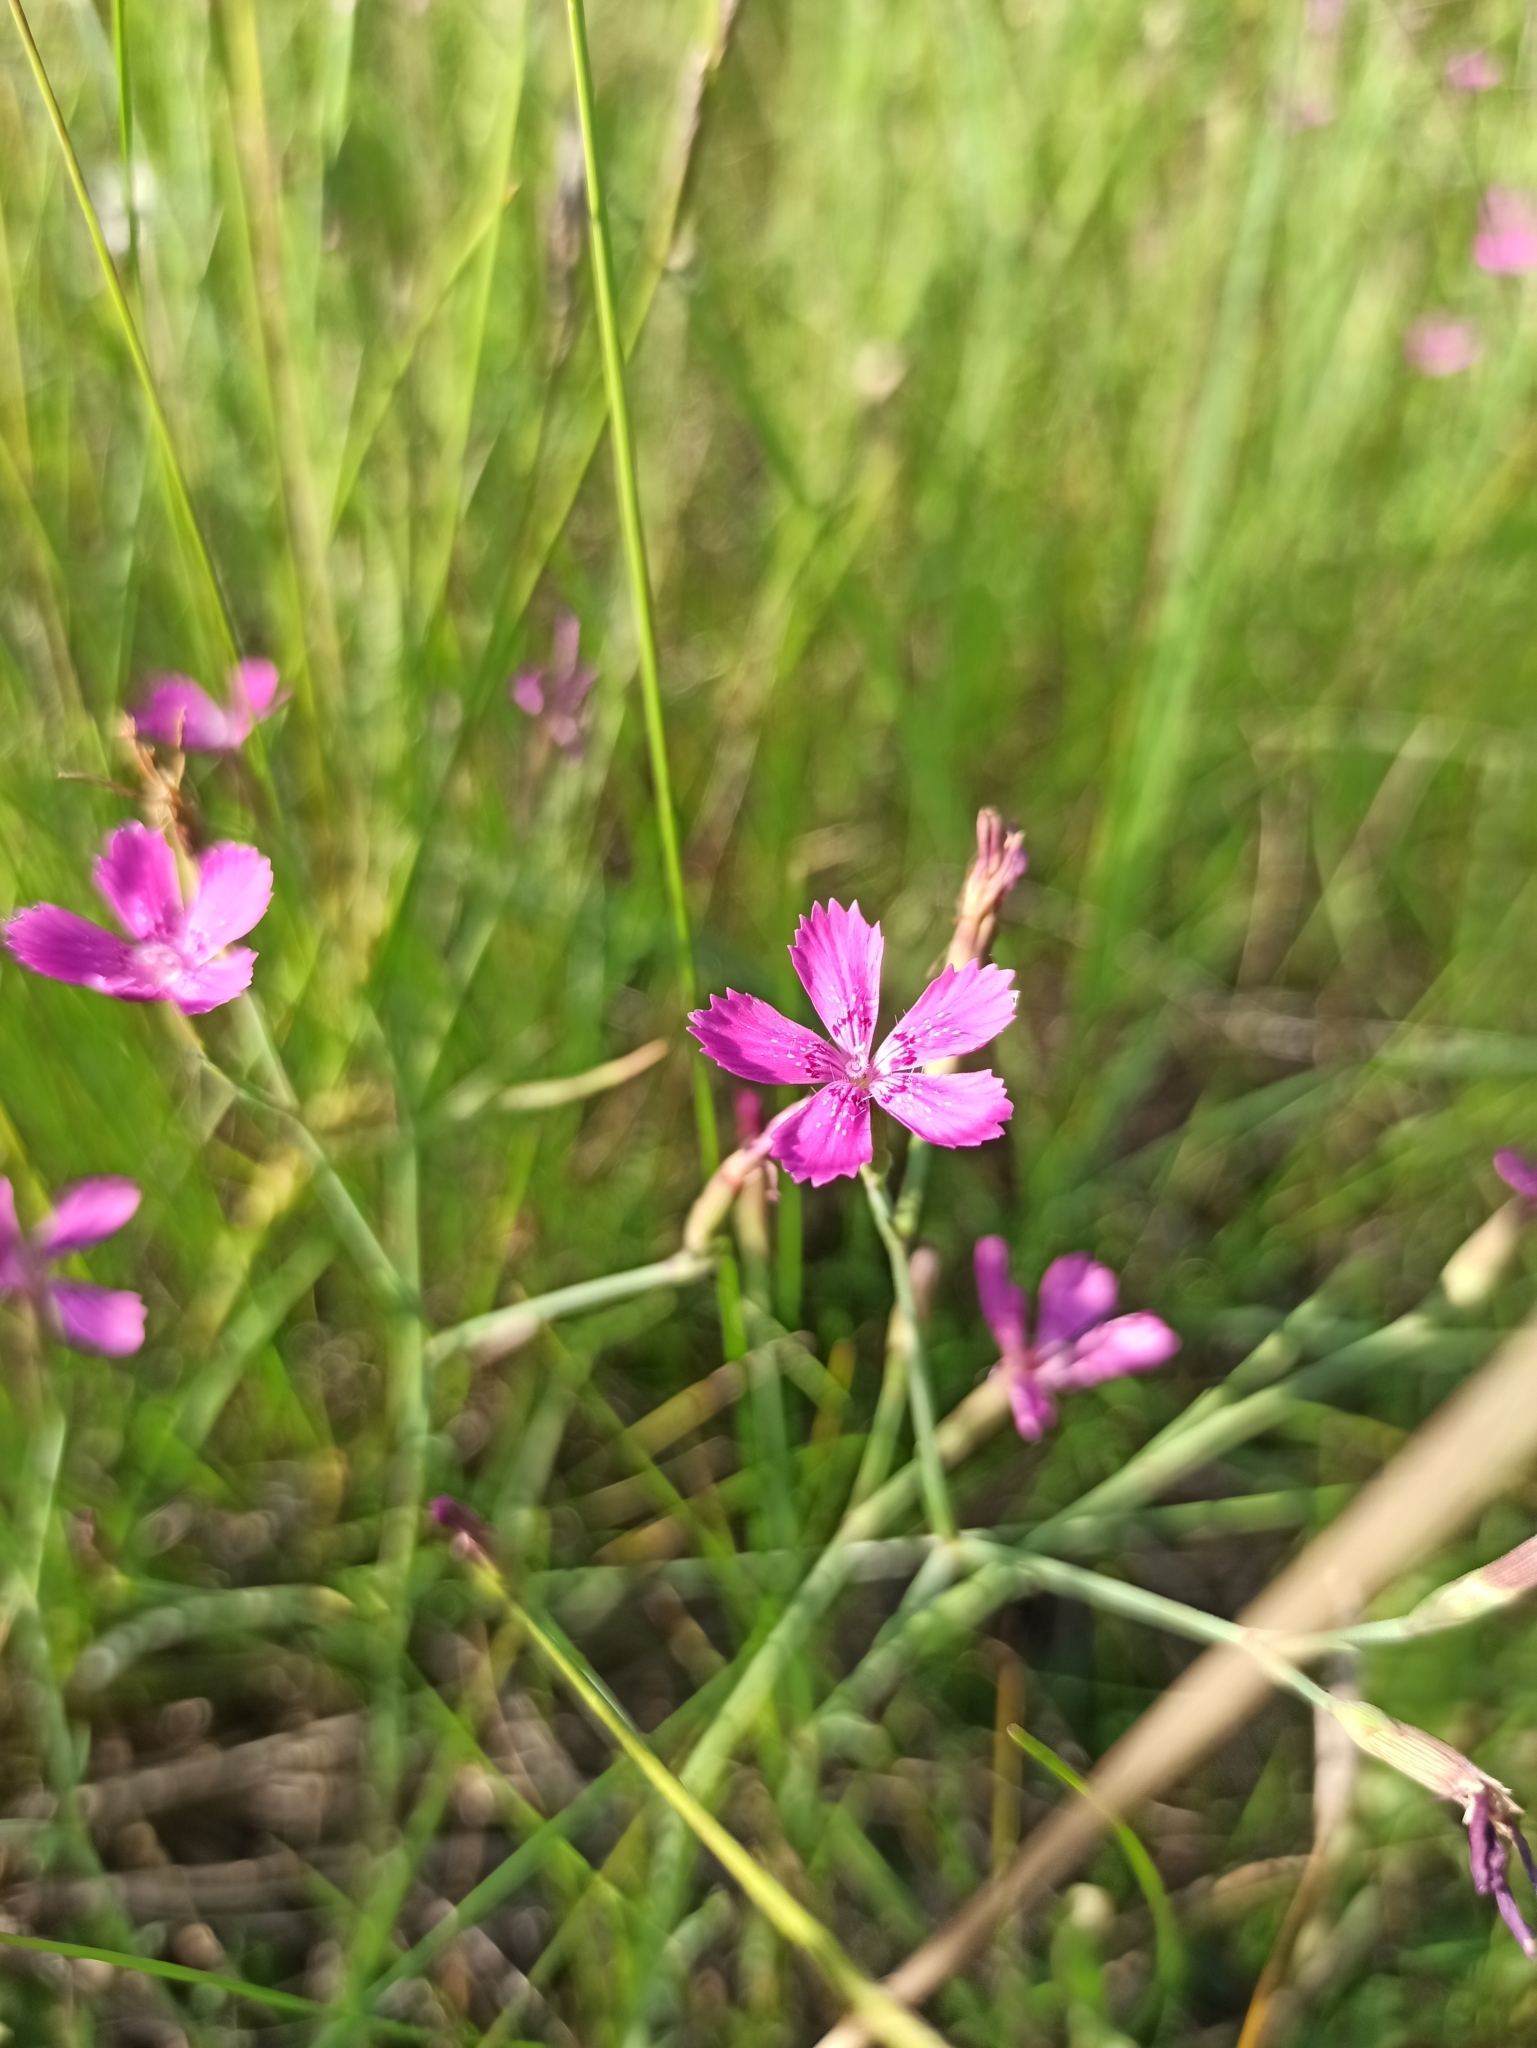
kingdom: Plantae
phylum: Tracheophyta
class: Magnoliopsida
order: Caryophyllales
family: Caryophyllaceae
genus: Dianthus
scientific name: Dianthus deltoides
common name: Maiden pink
